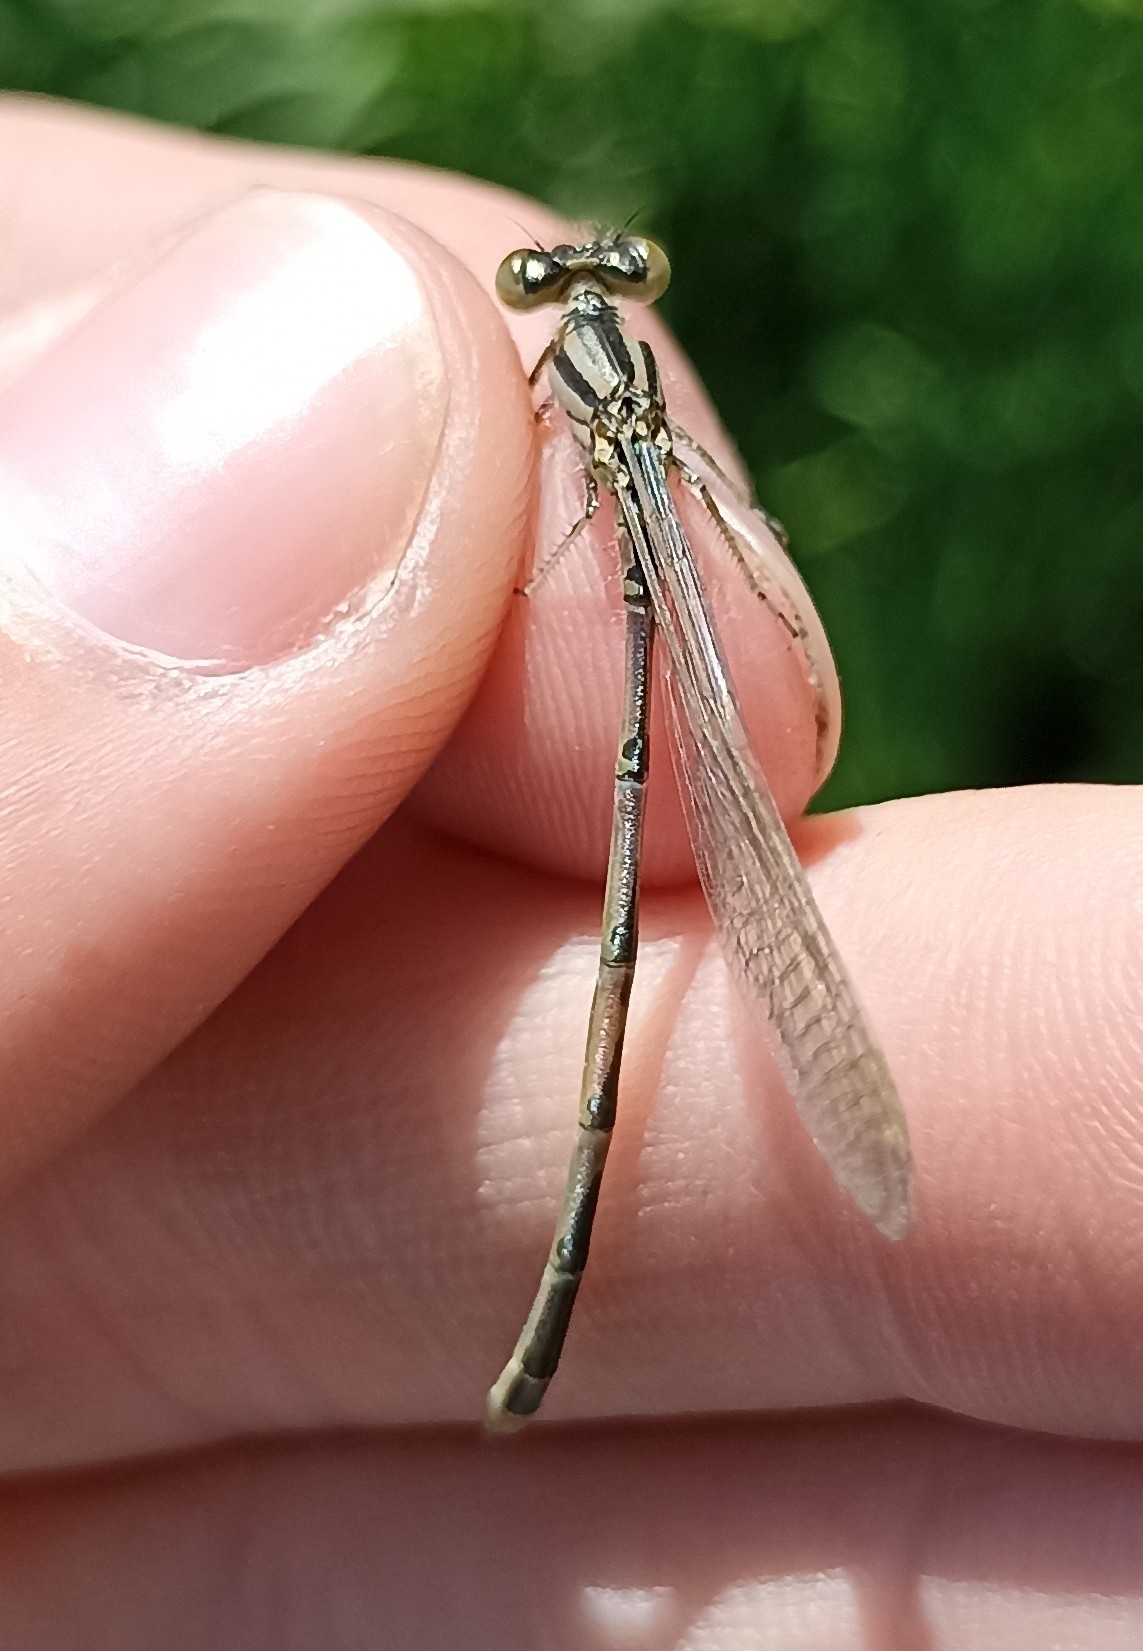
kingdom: Animalia
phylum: Arthropoda
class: Insecta
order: Odonata
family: Coenagrionidae
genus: Erythromma
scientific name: Erythromma lindenii
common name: Blue-eye
